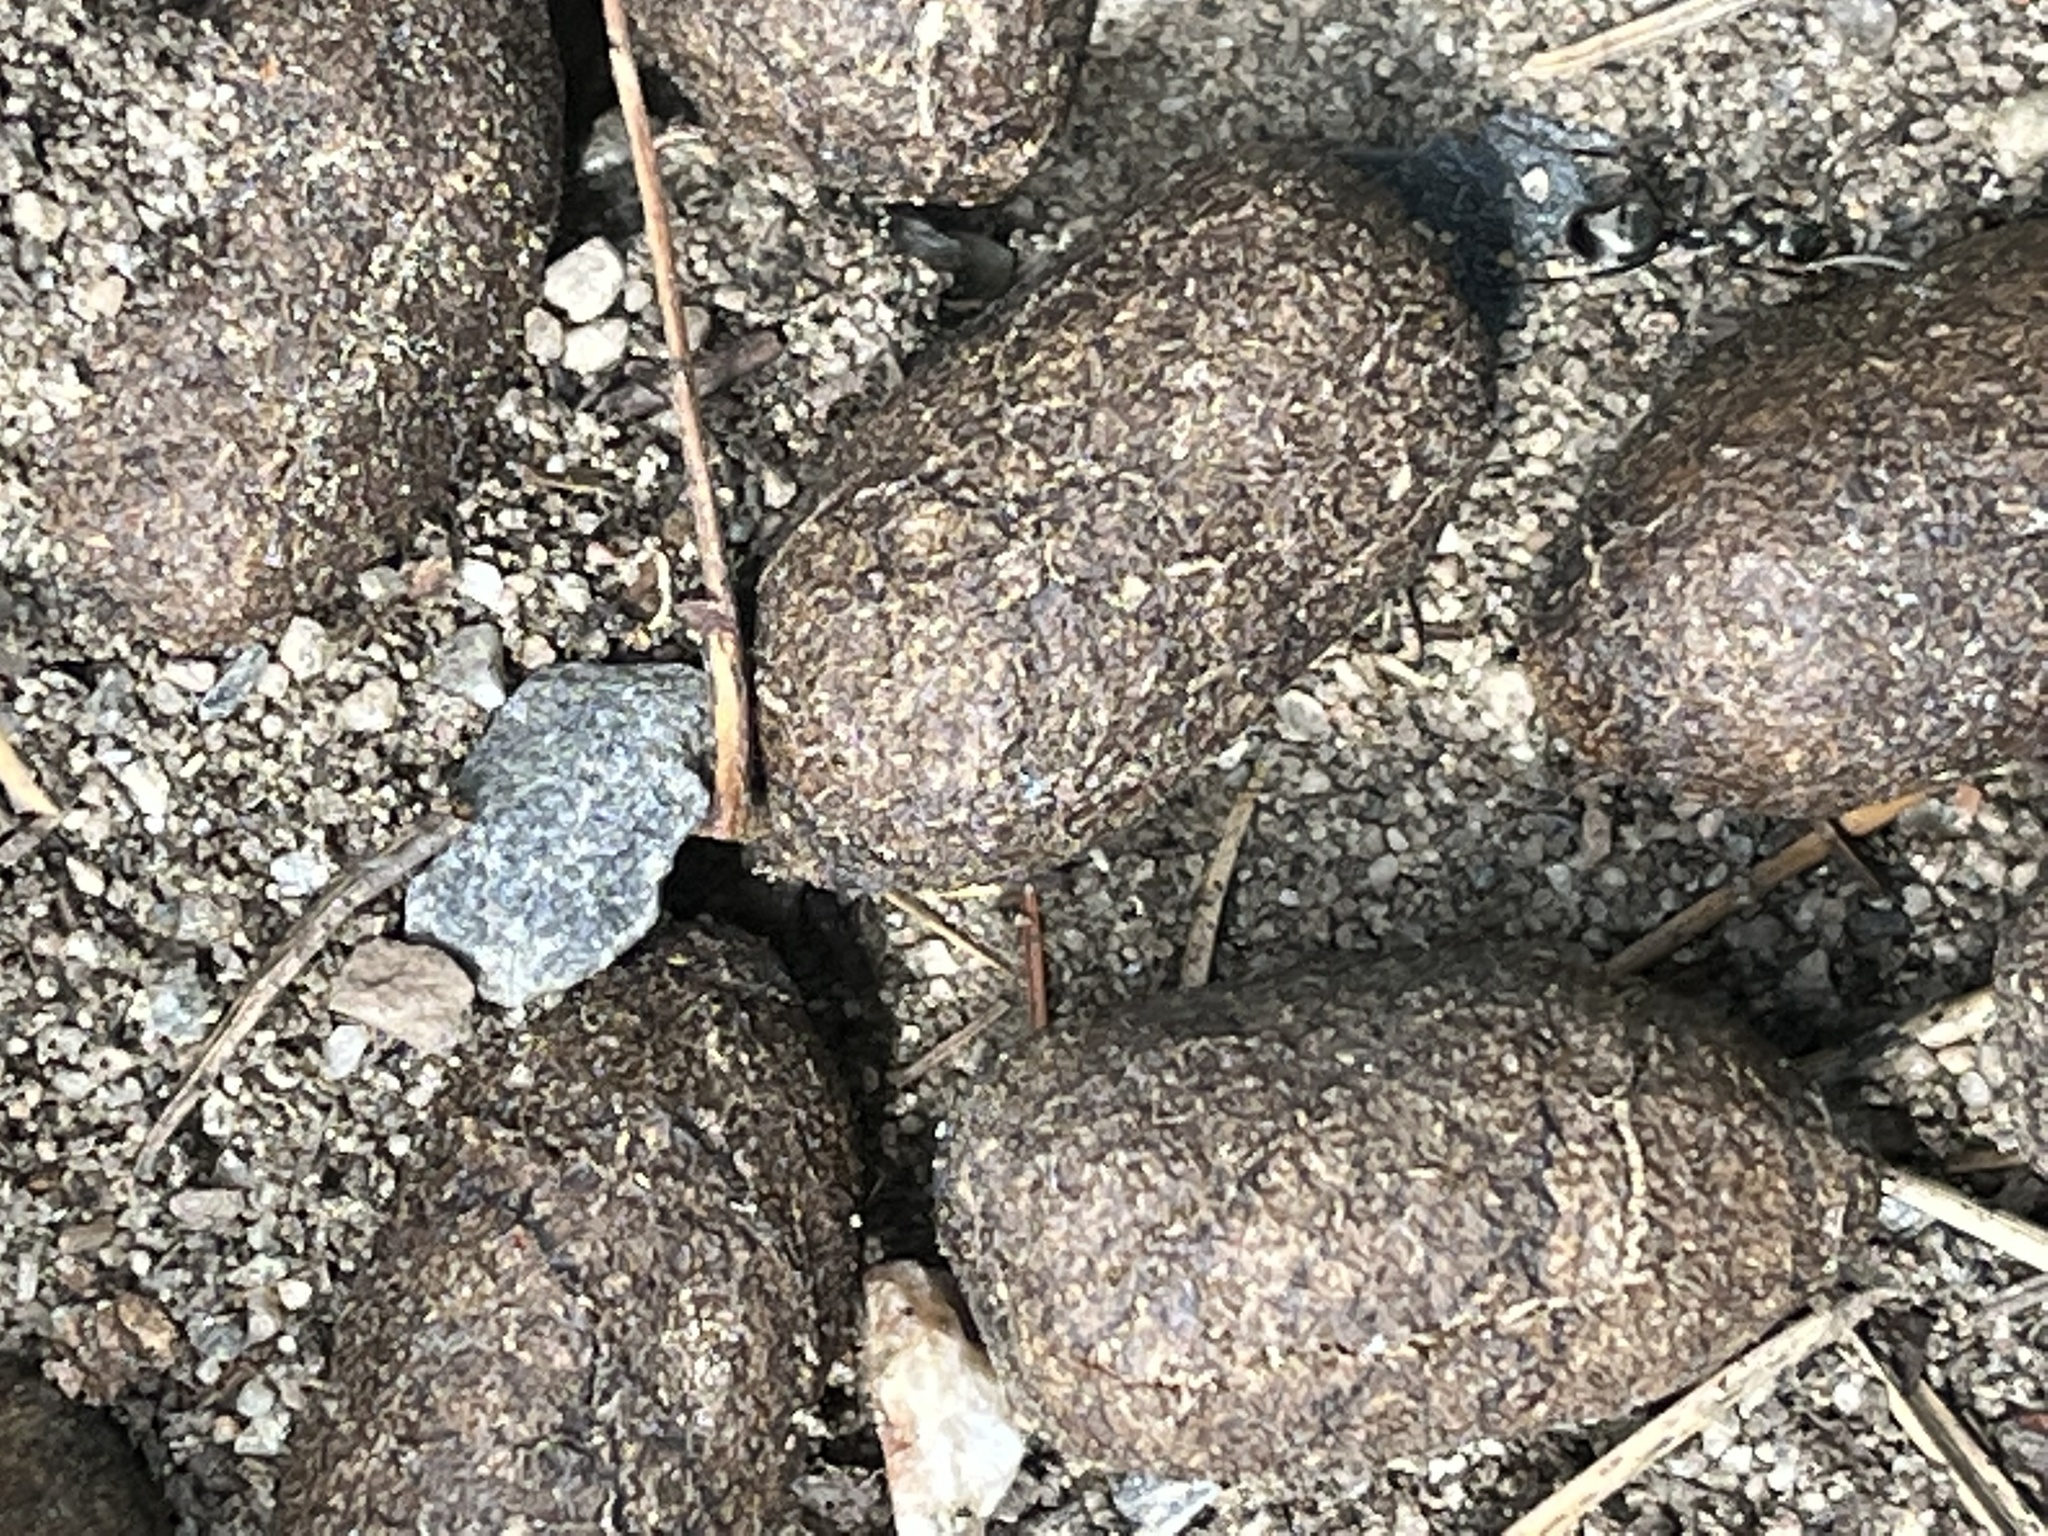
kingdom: Animalia
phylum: Chordata
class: Mammalia
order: Artiodactyla
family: Cervidae
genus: Alces
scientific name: Alces alces
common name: Moose
